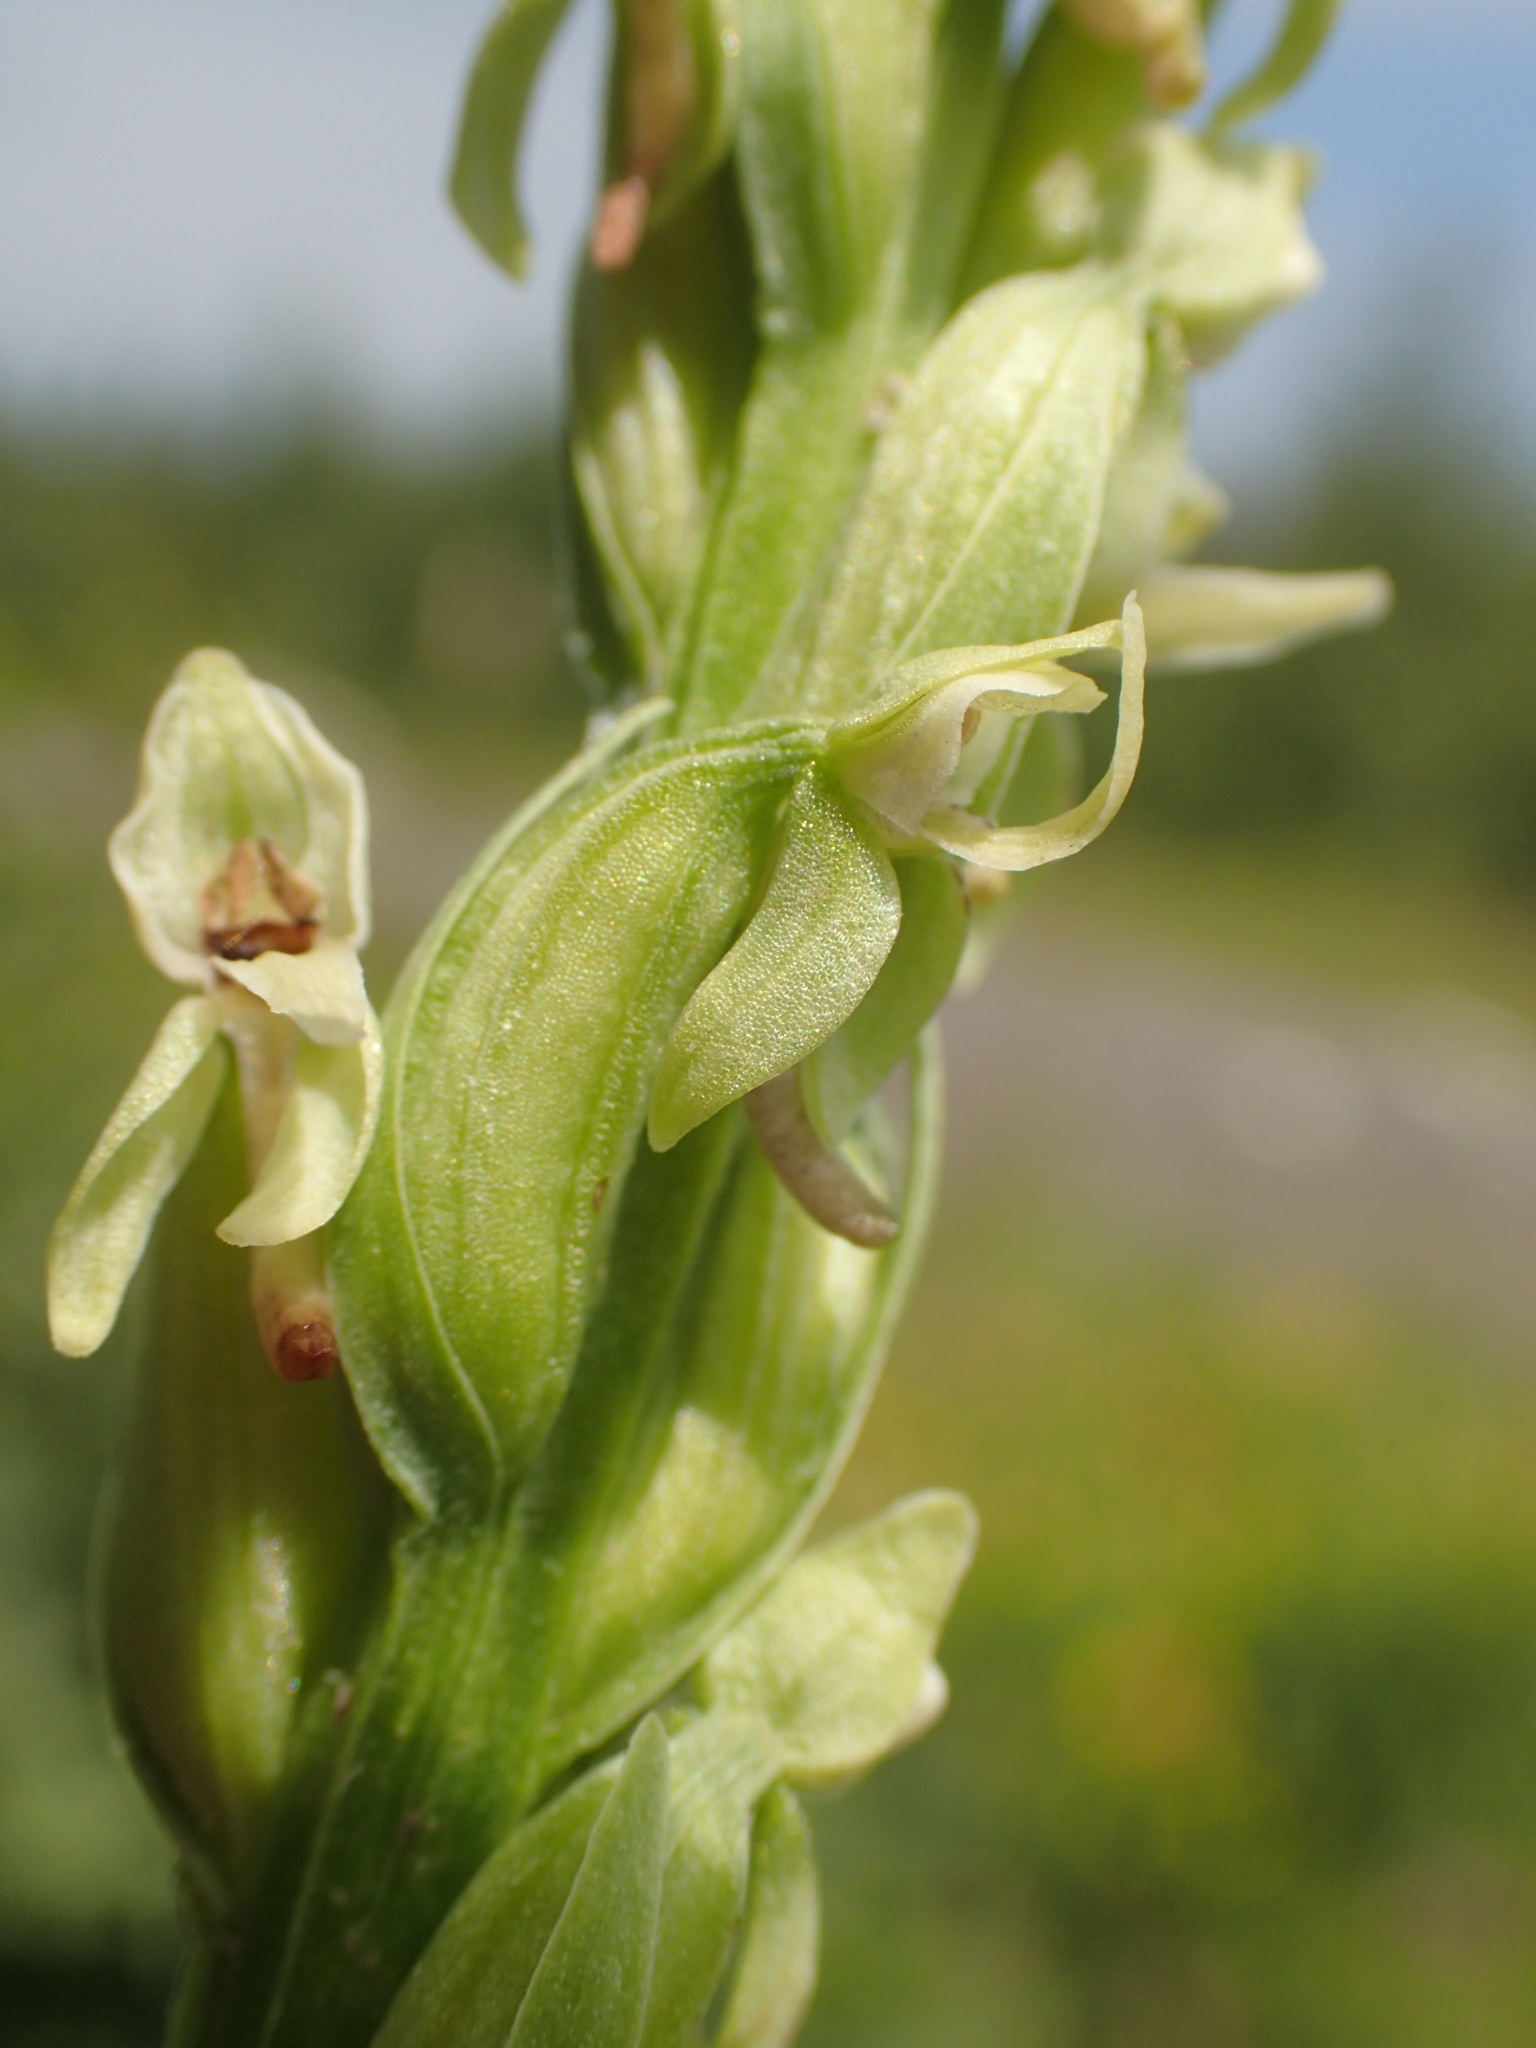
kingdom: Plantae
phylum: Tracheophyta
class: Liliopsida
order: Asparagales
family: Orchidaceae
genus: Platanthera
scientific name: Platanthera huronensis
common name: Fragrant green orchid
